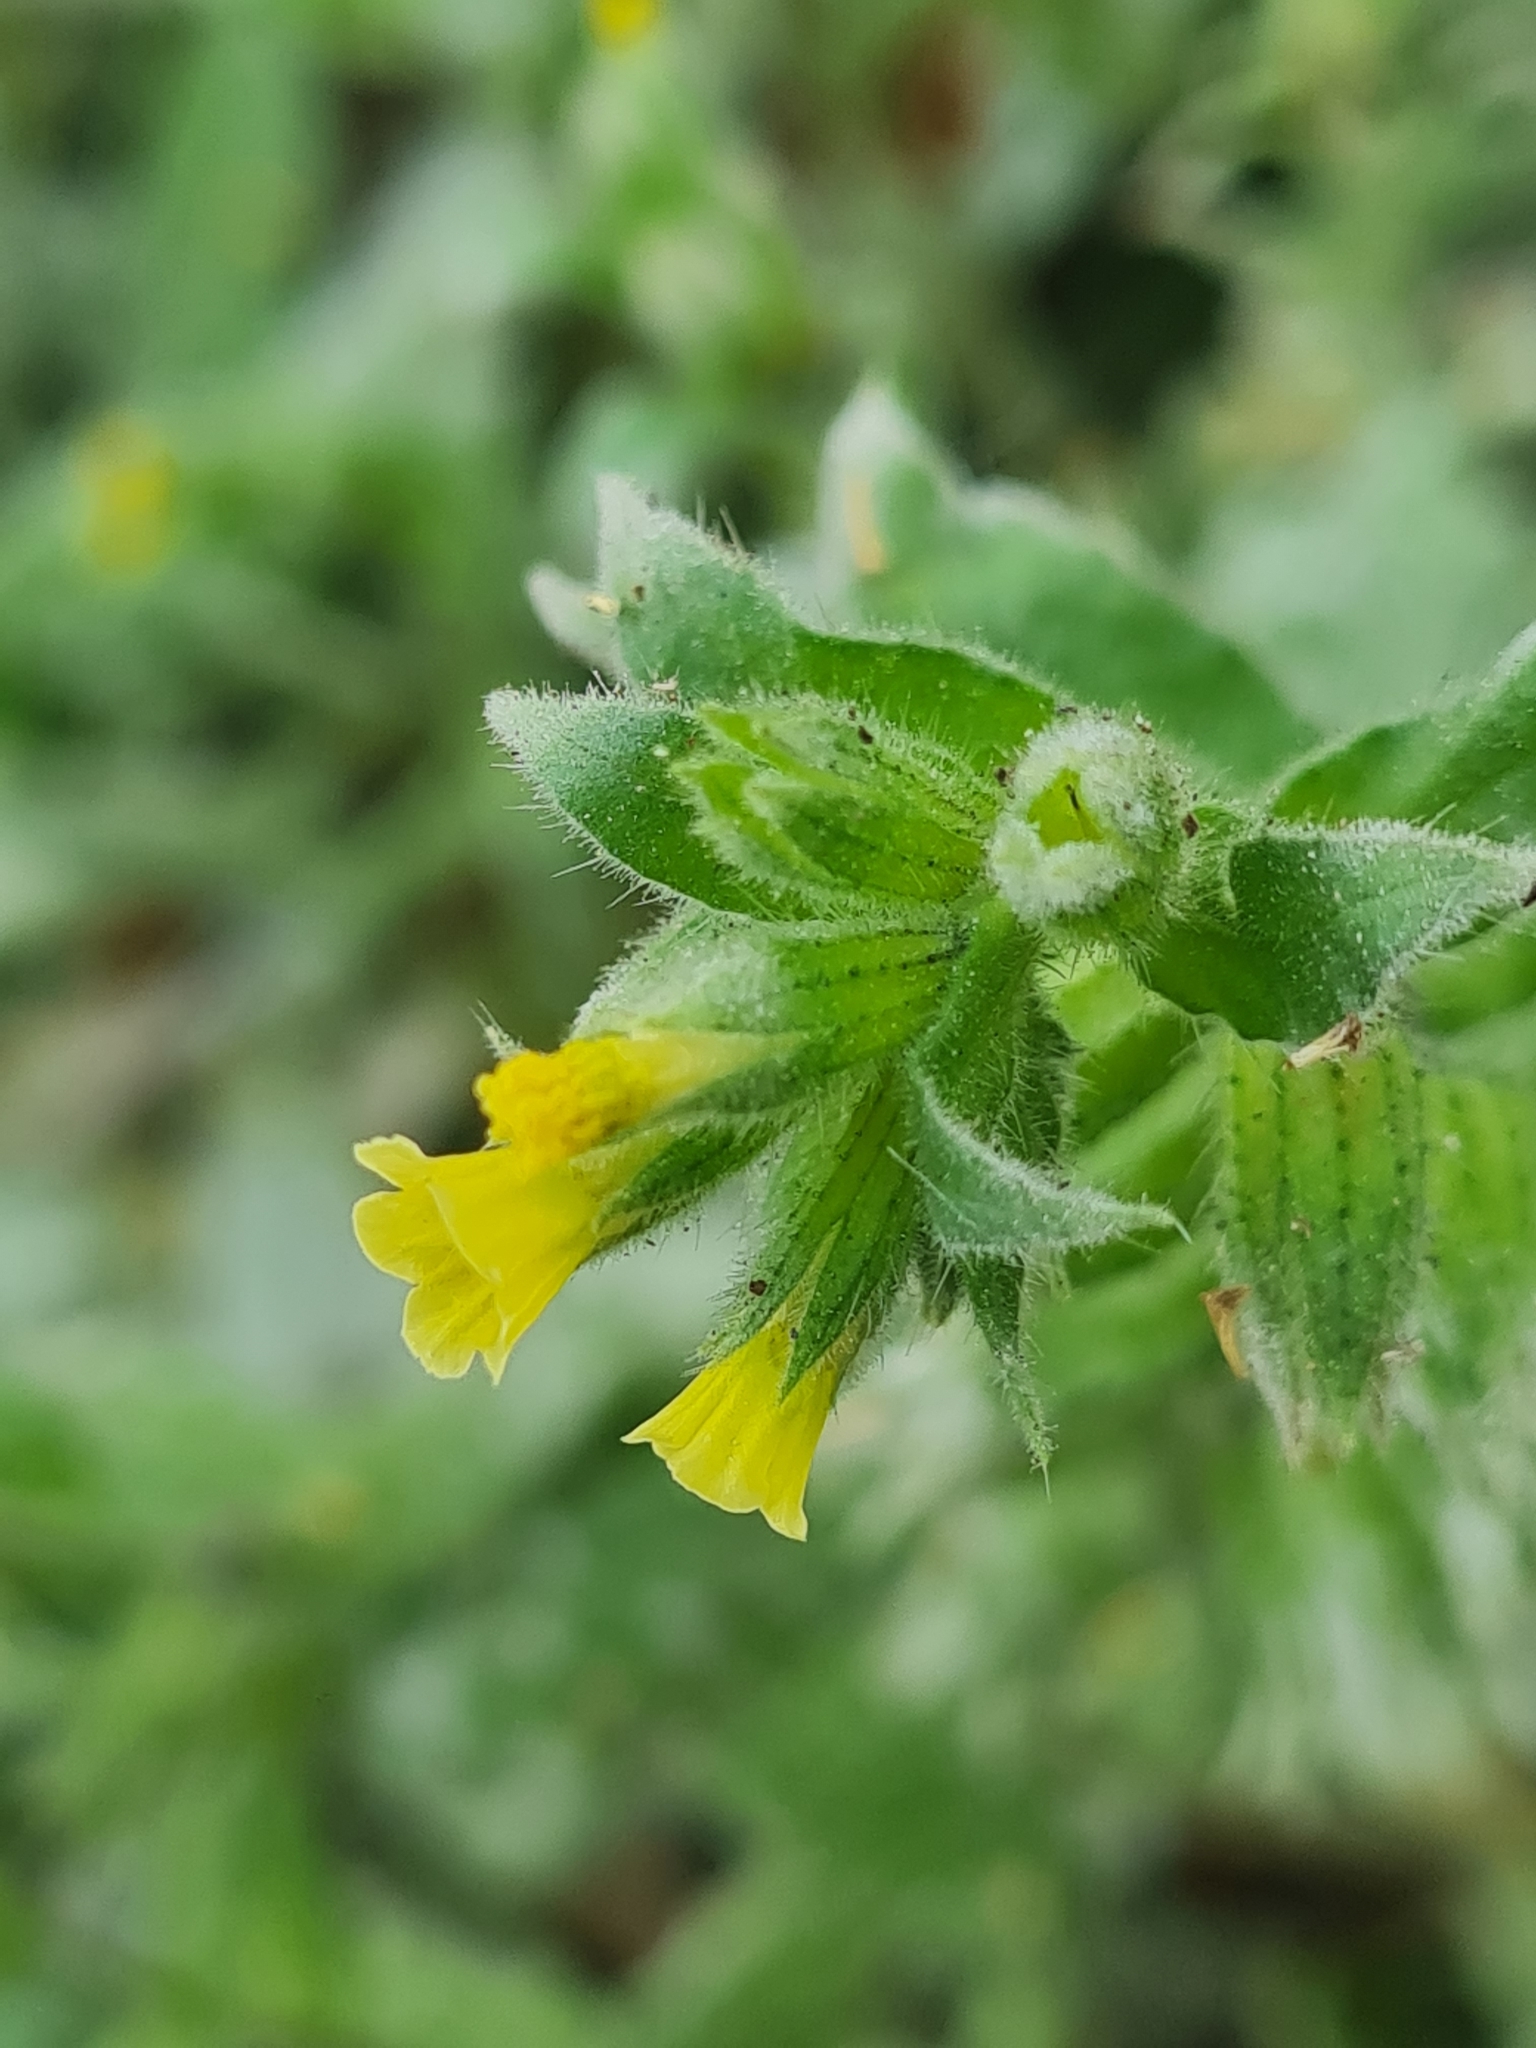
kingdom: Plantae
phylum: Tracheophyta
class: Magnoliopsida
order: Boraginales
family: Boraginaceae
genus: Nonea
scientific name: Nonea flavescens
